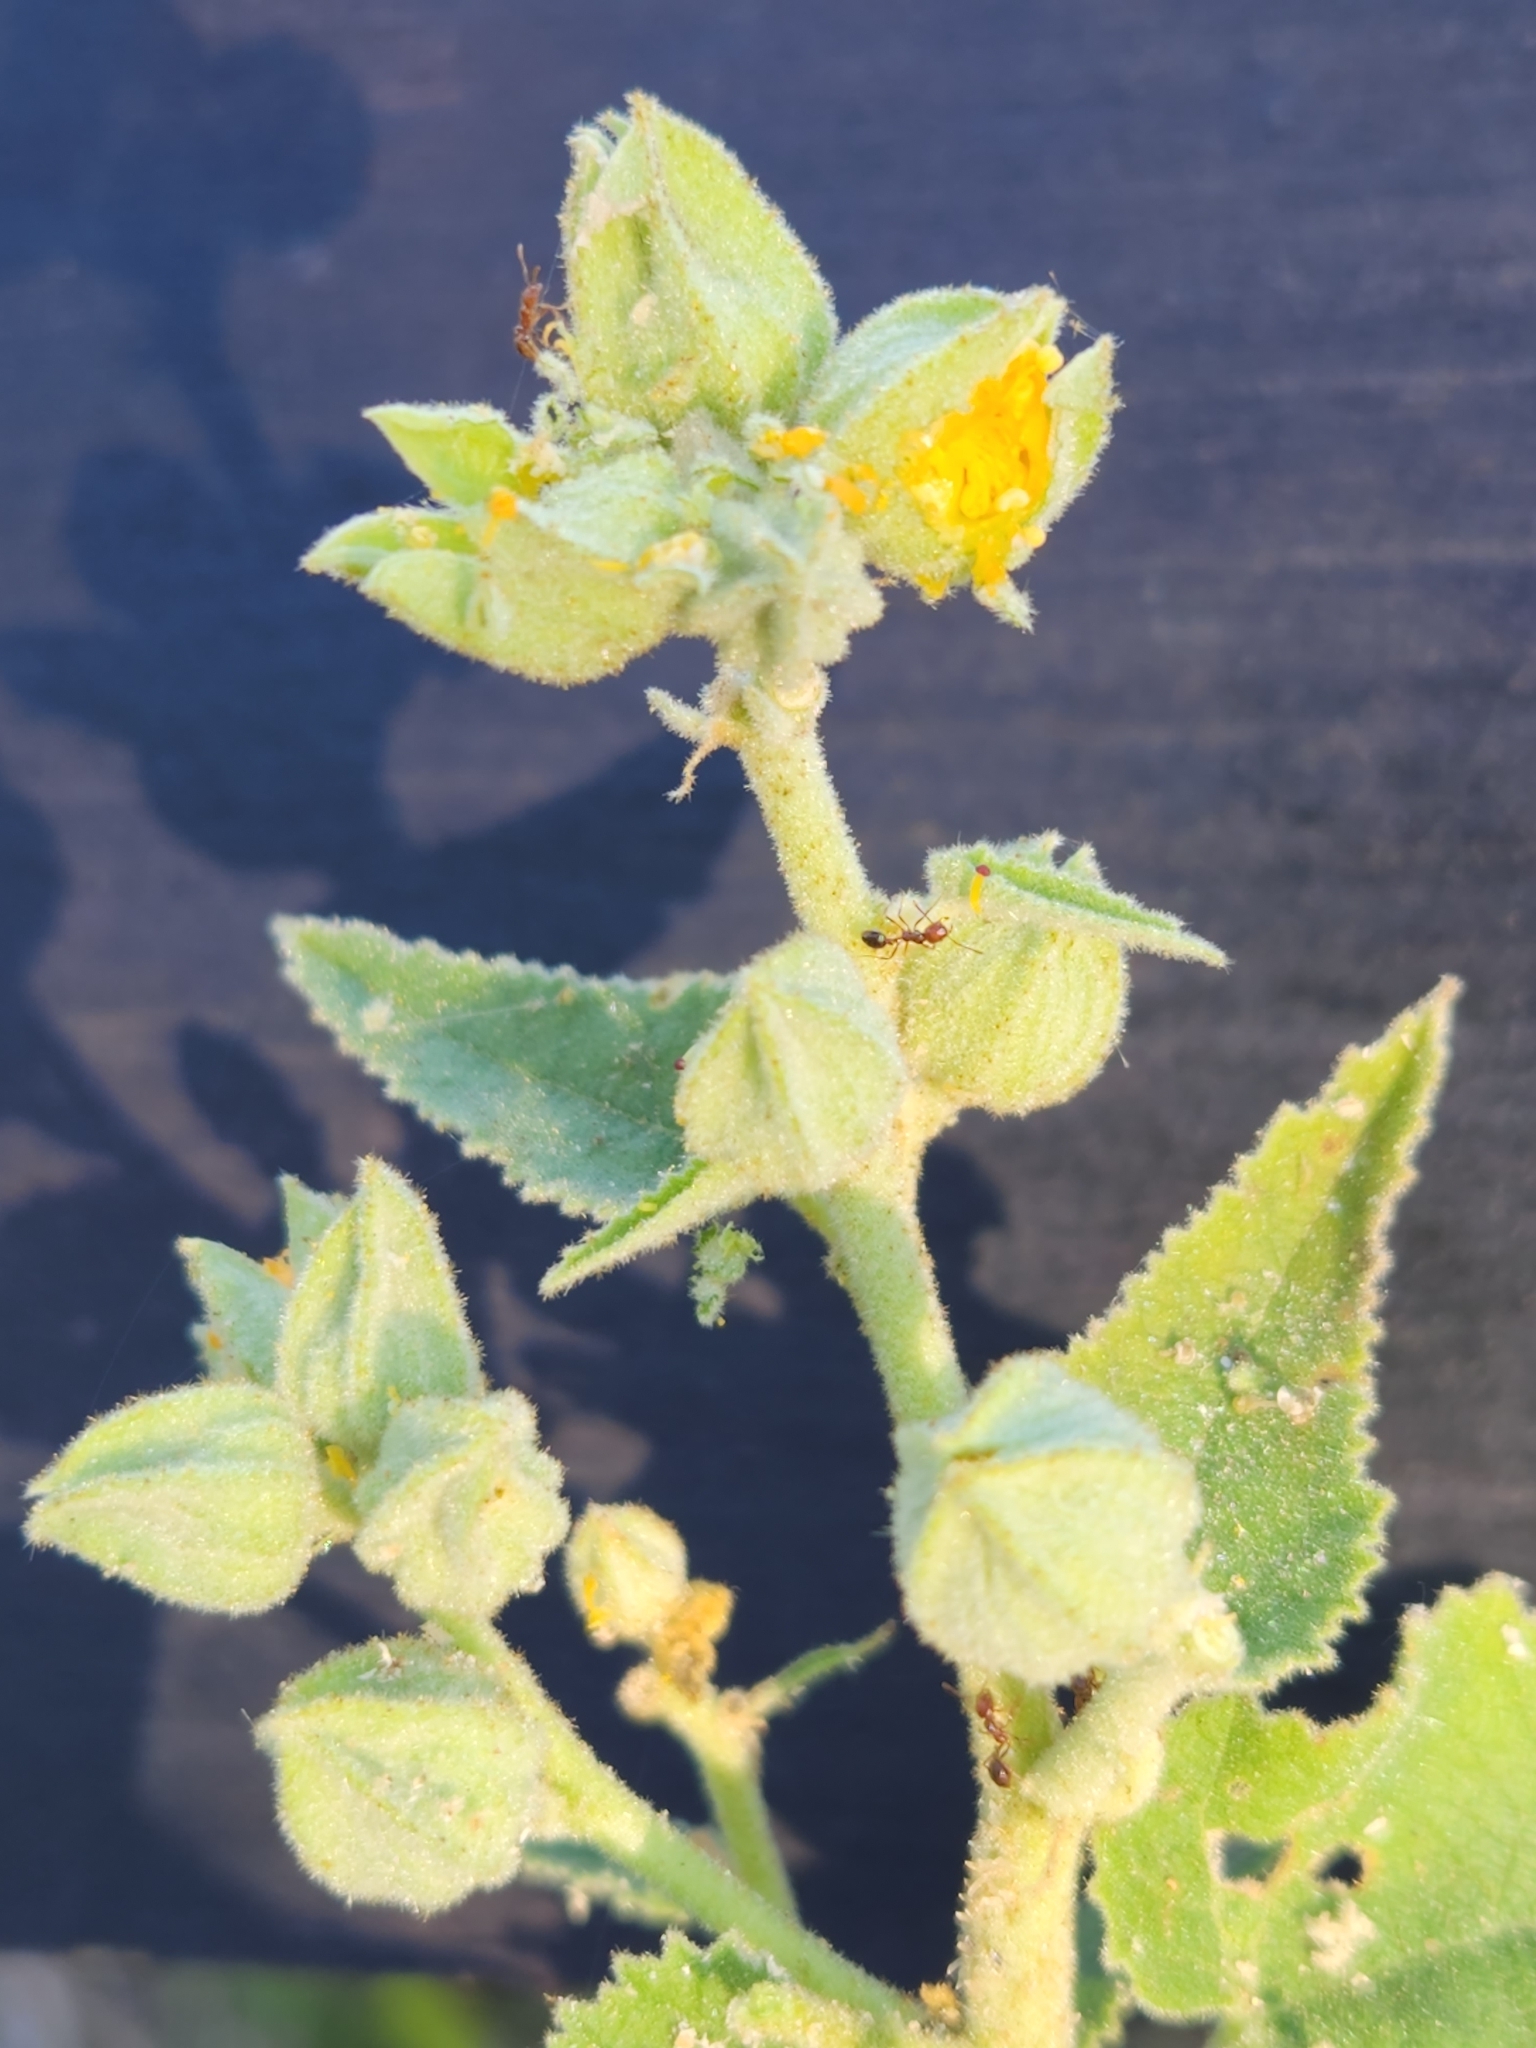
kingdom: Plantae
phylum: Tracheophyta
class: Magnoliopsida
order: Malvales
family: Malvaceae
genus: Allowissadula
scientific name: Allowissadula lozanoi
